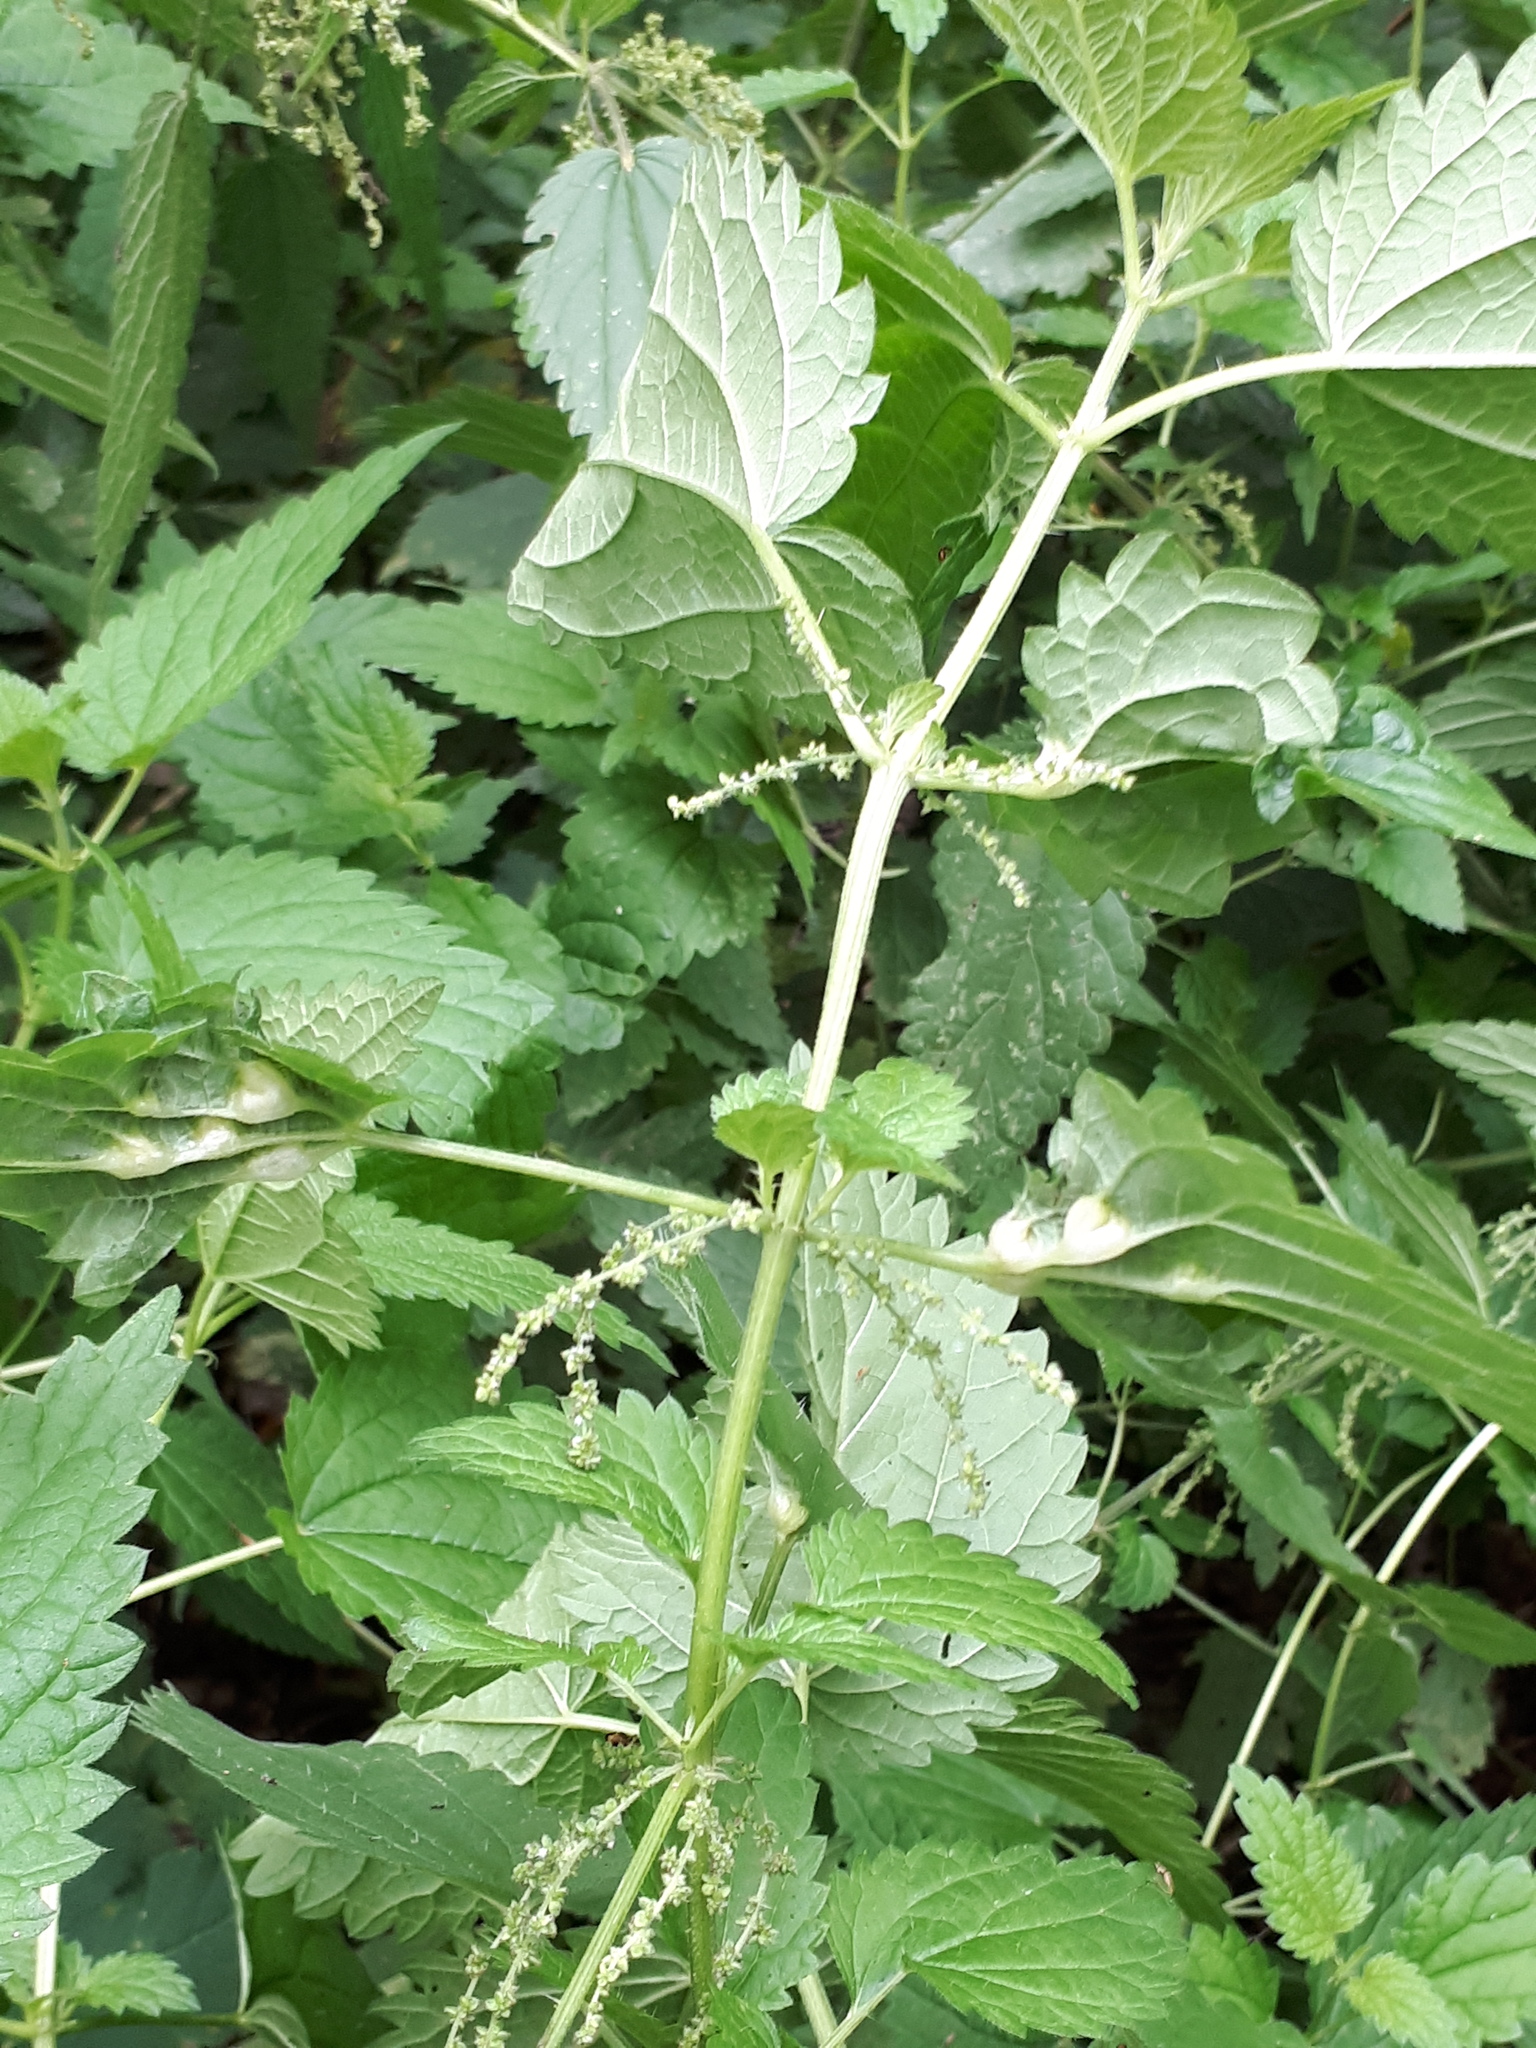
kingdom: Animalia
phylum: Arthropoda
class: Insecta
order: Diptera
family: Cecidomyiidae
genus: Dasineura
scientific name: Dasineura urticae
